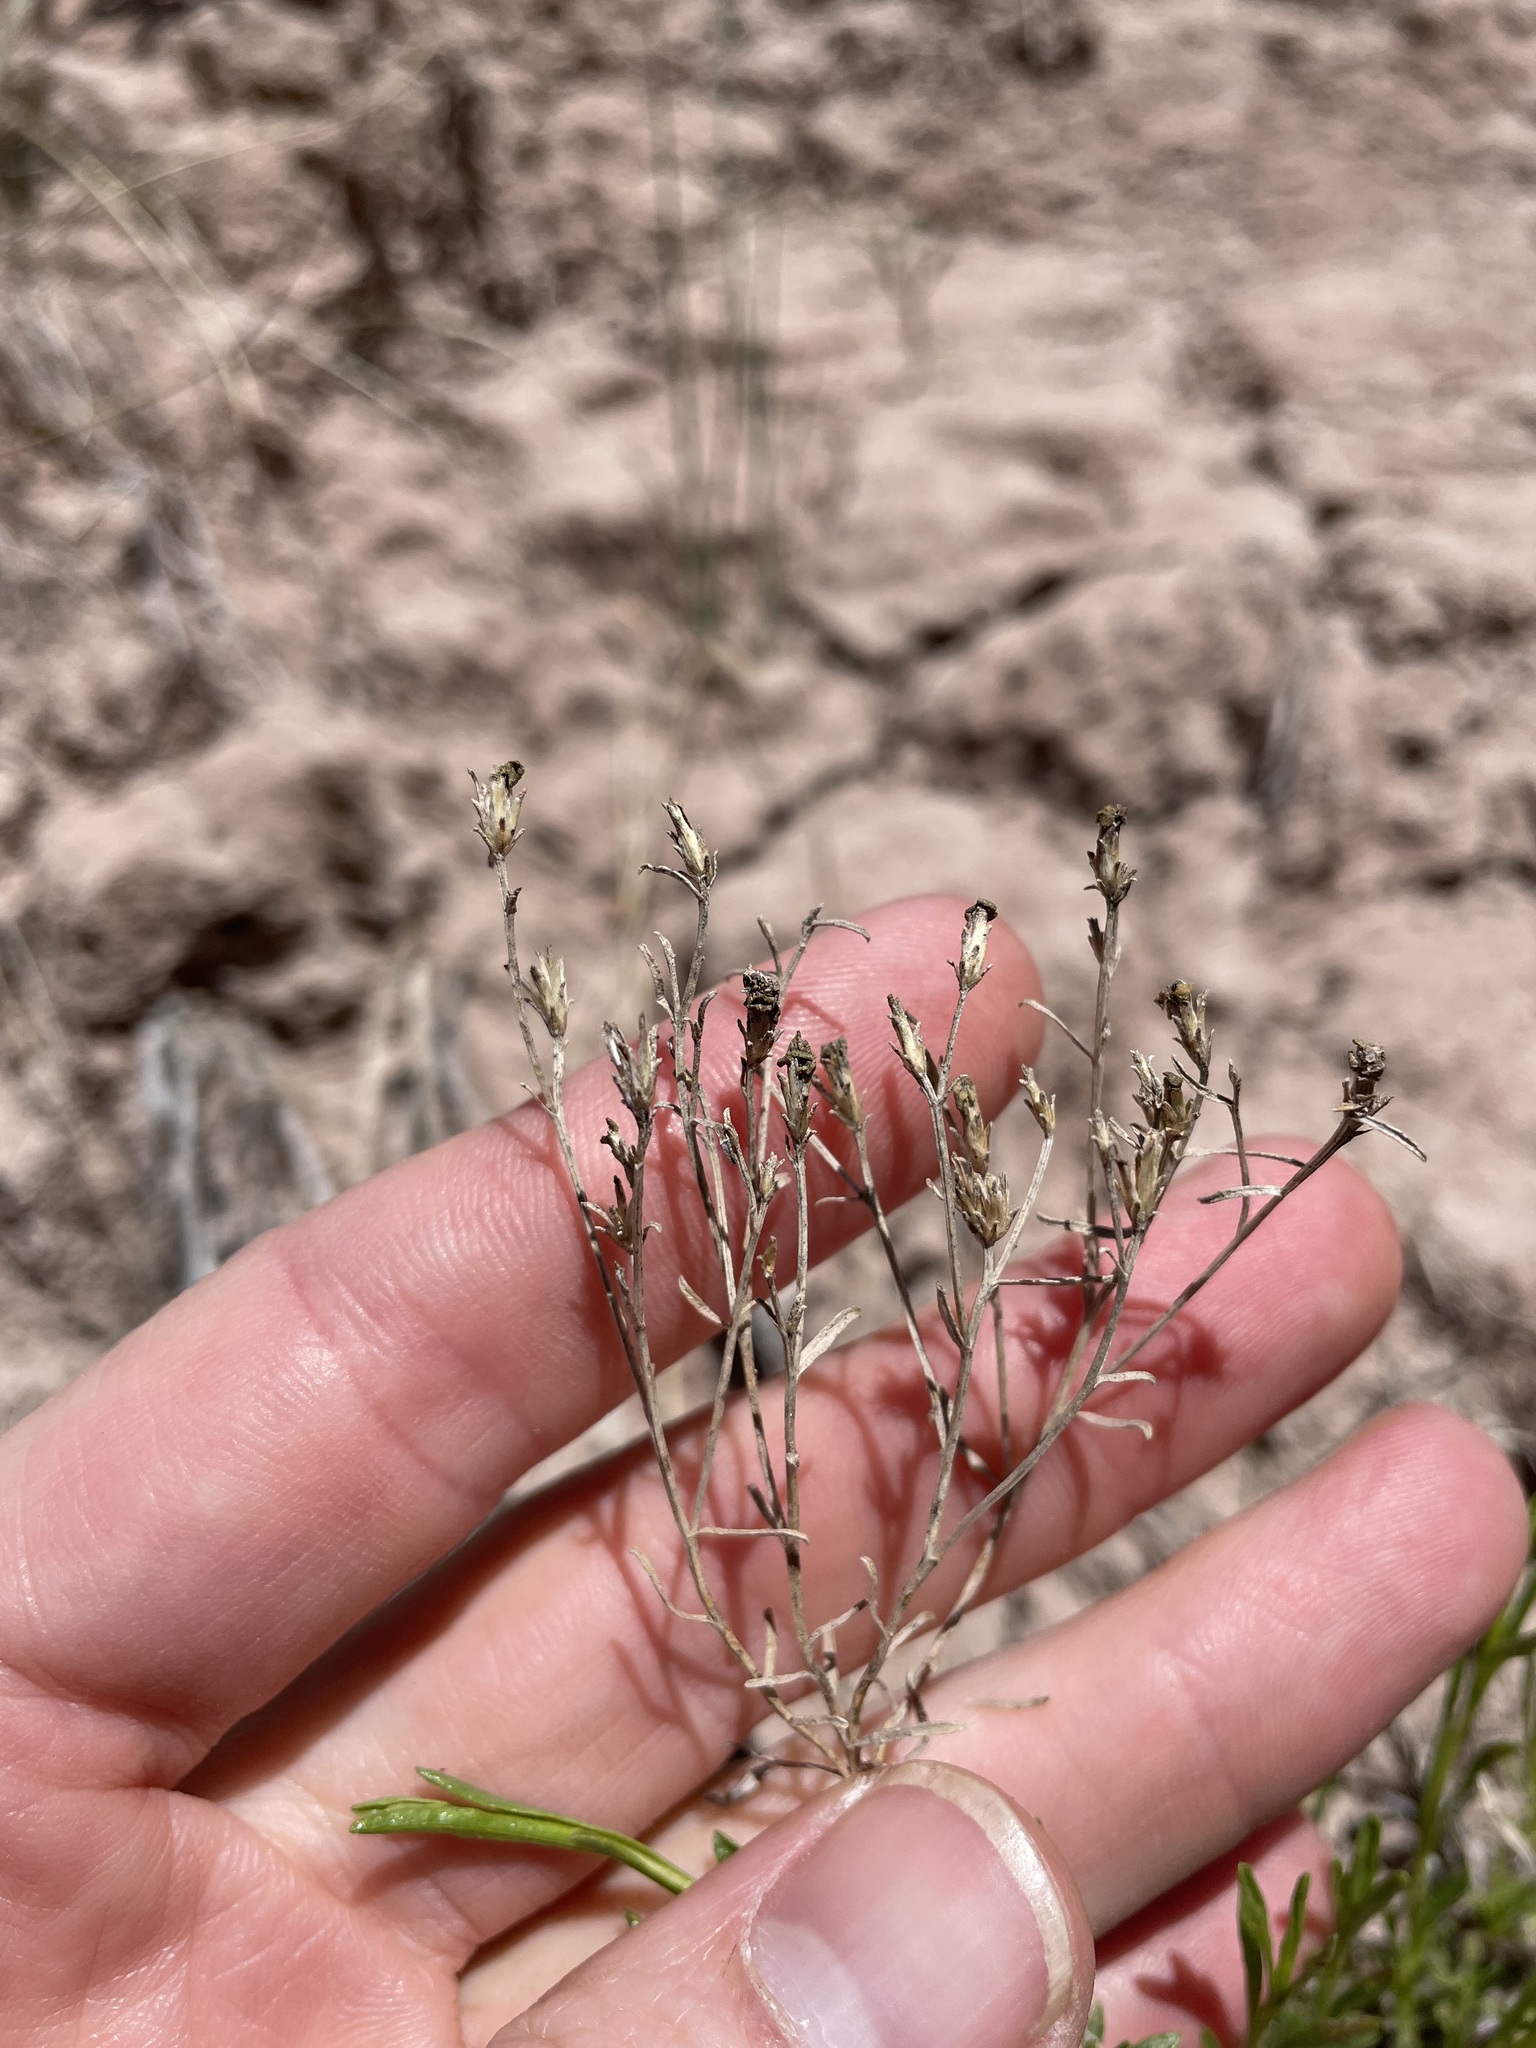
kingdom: Plantae
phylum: Tracheophyta
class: Magnoliopsida
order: Asterales
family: Asteraceae
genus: Gutierrezia
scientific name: Gutierrezia sarothrae
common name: Broom snakeweed
